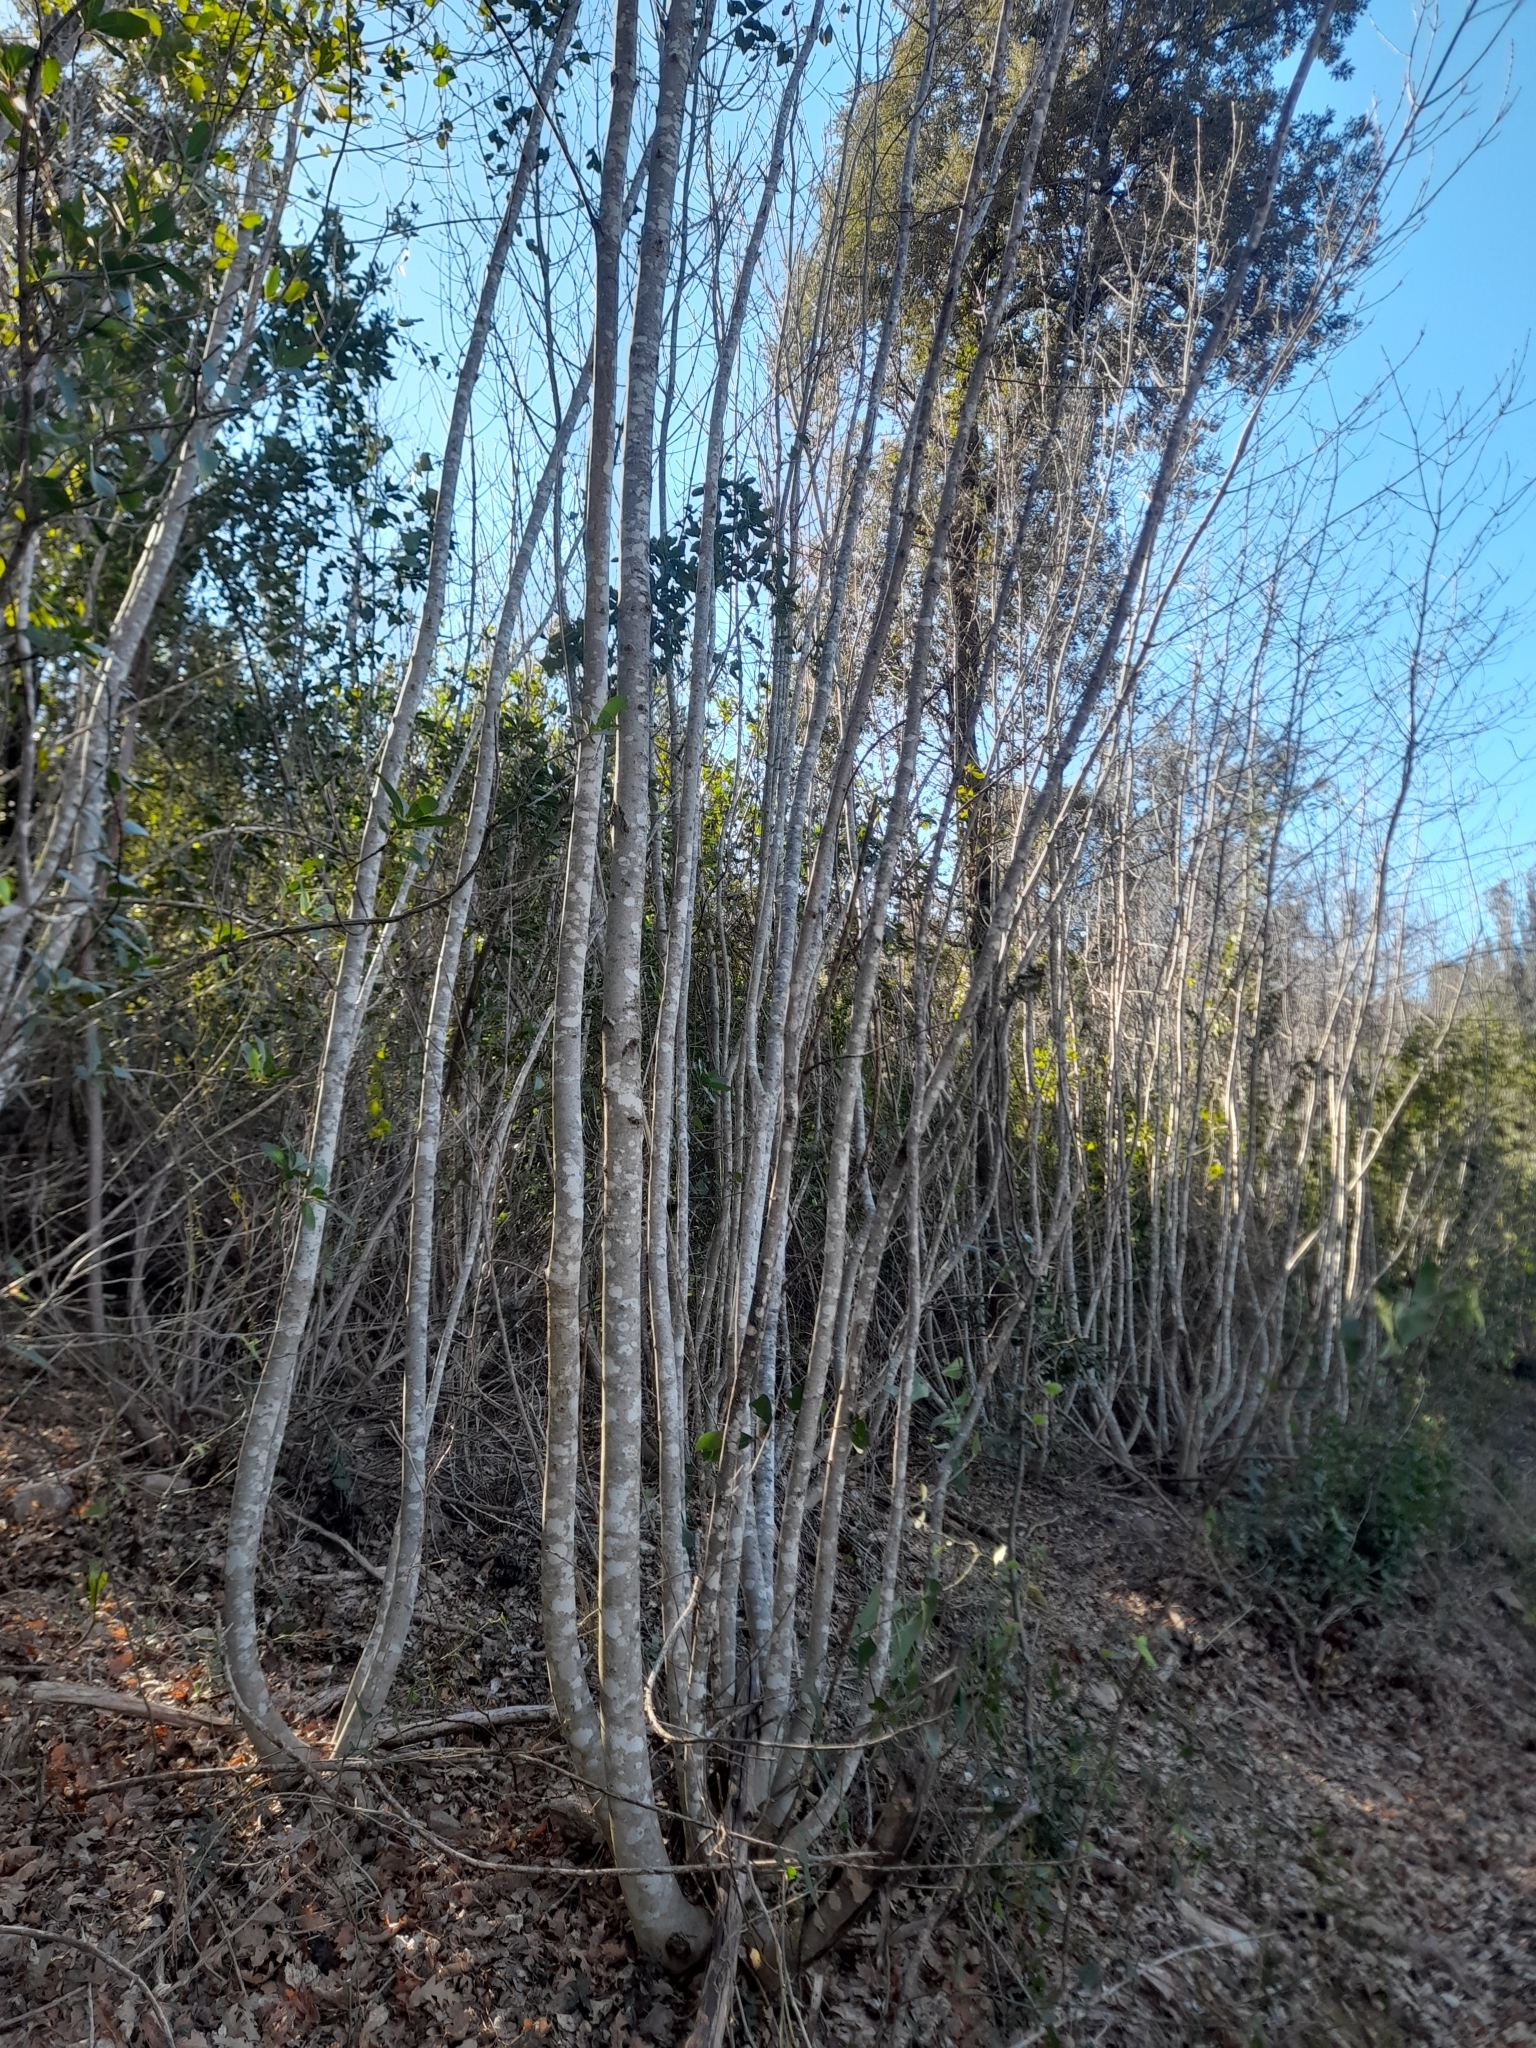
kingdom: Plantae
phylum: Tracheophyta
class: Magnoliopsida
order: Lamiales
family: Oleaceae
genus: Fraxinus
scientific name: Fraxinus ornus
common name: Manna ash
